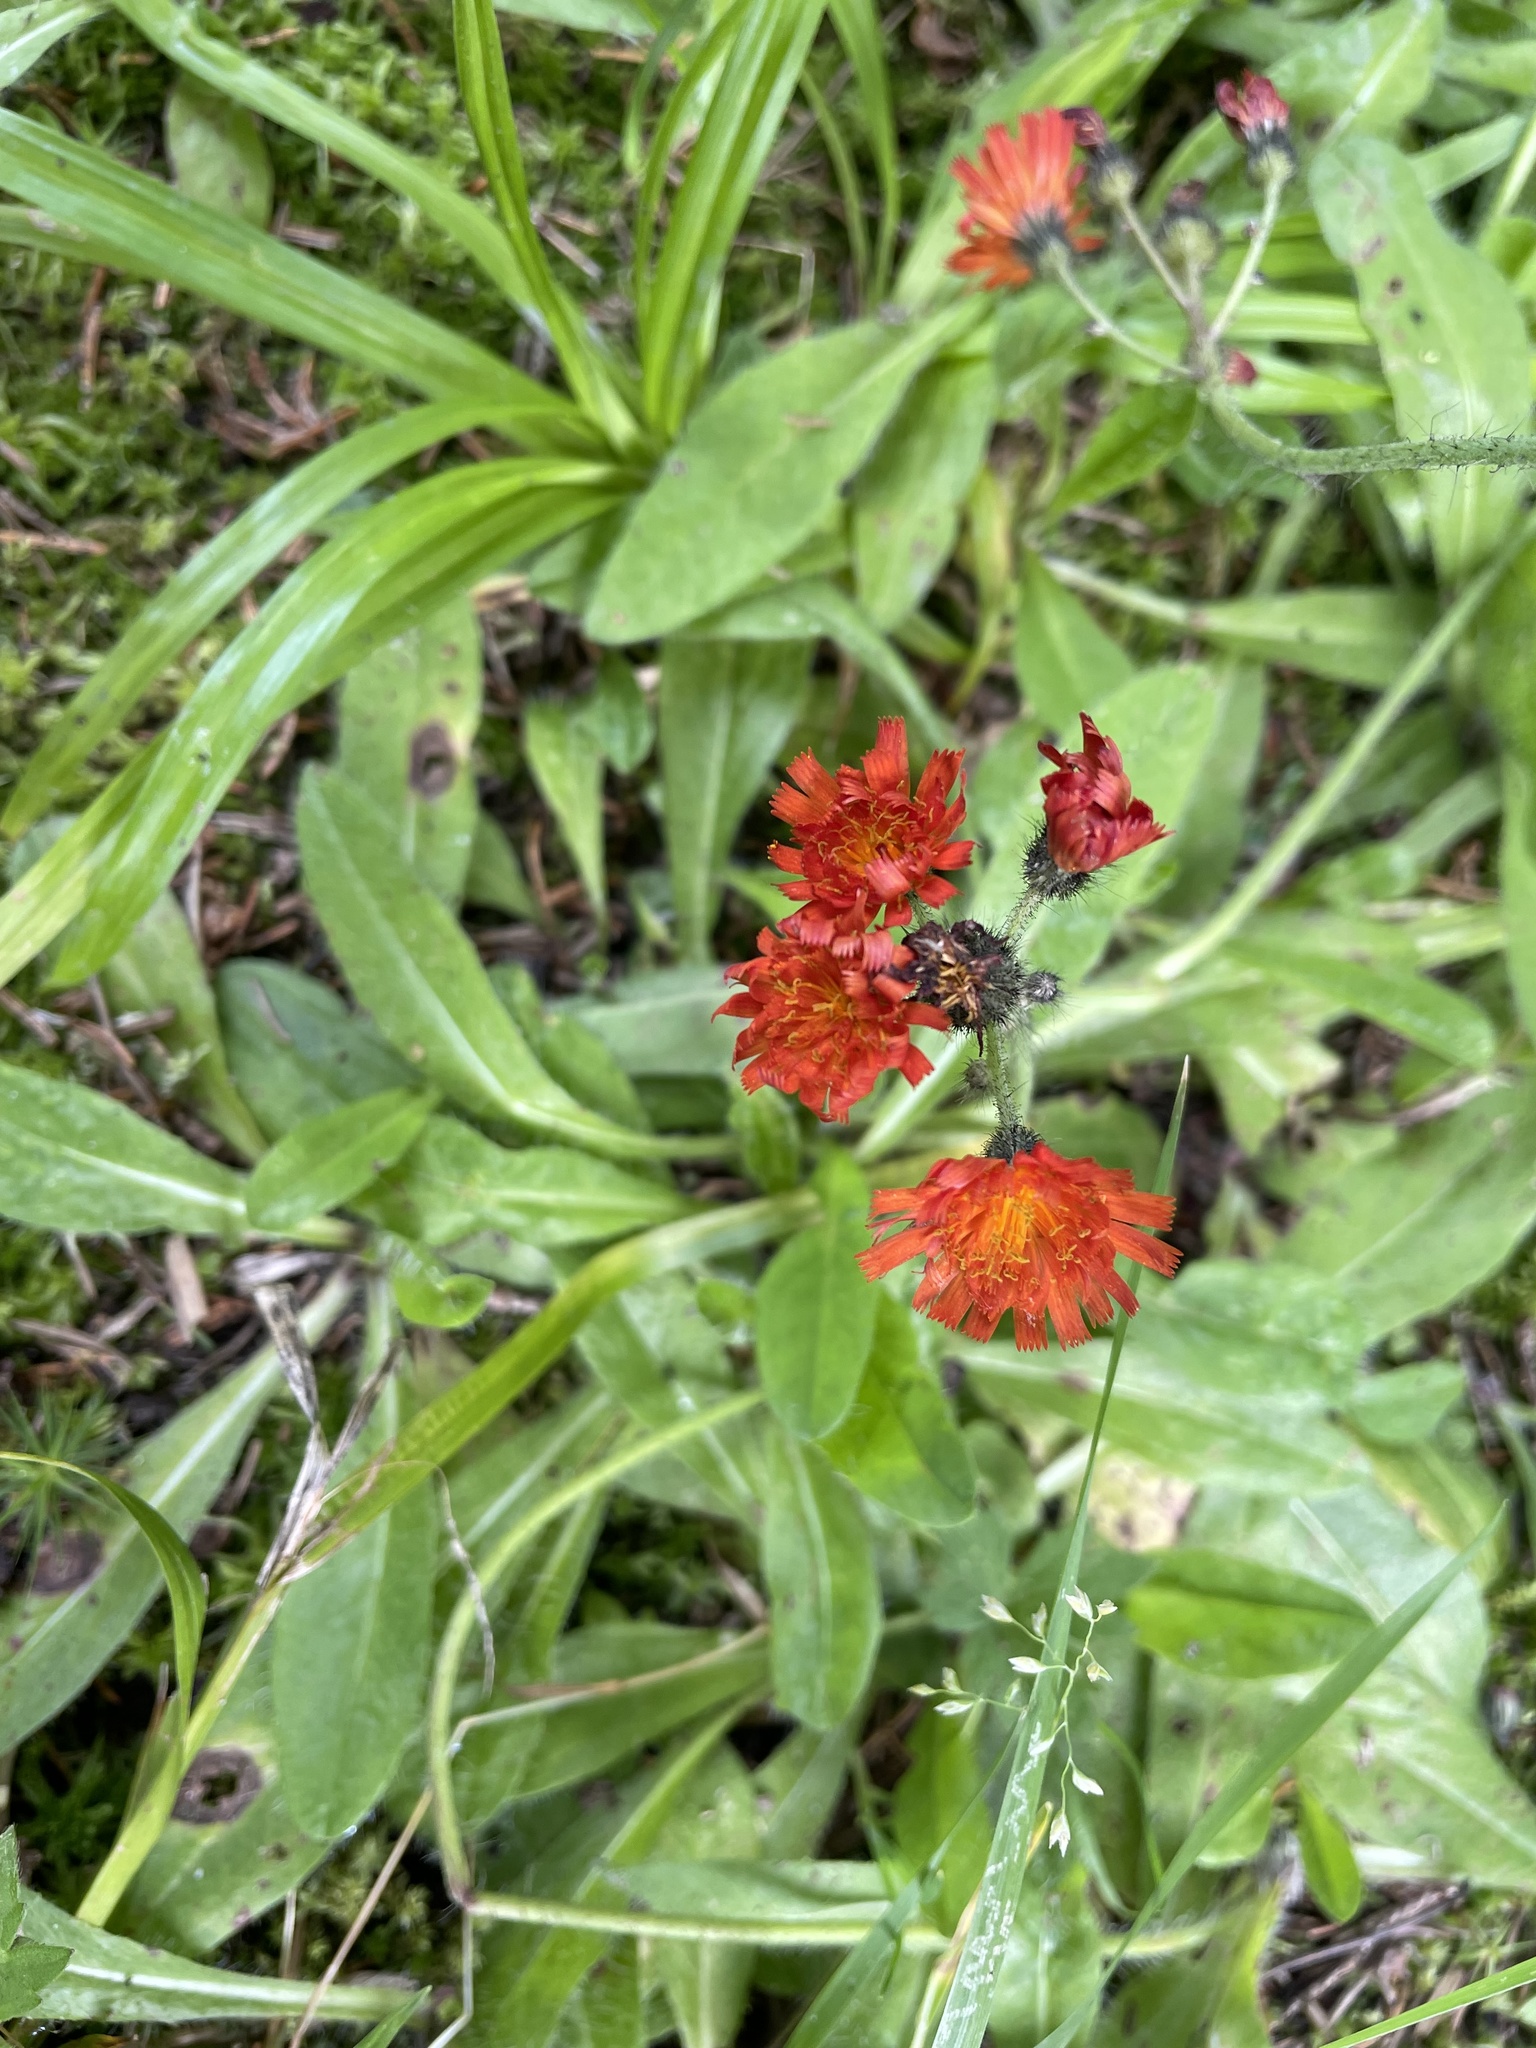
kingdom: Plantae
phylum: Tracheophyta
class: Magnoliopsida
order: Asterales
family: Asteraceae
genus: Pilosella
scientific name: Pilosella aurantiaca
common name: Fox-and-cubs
